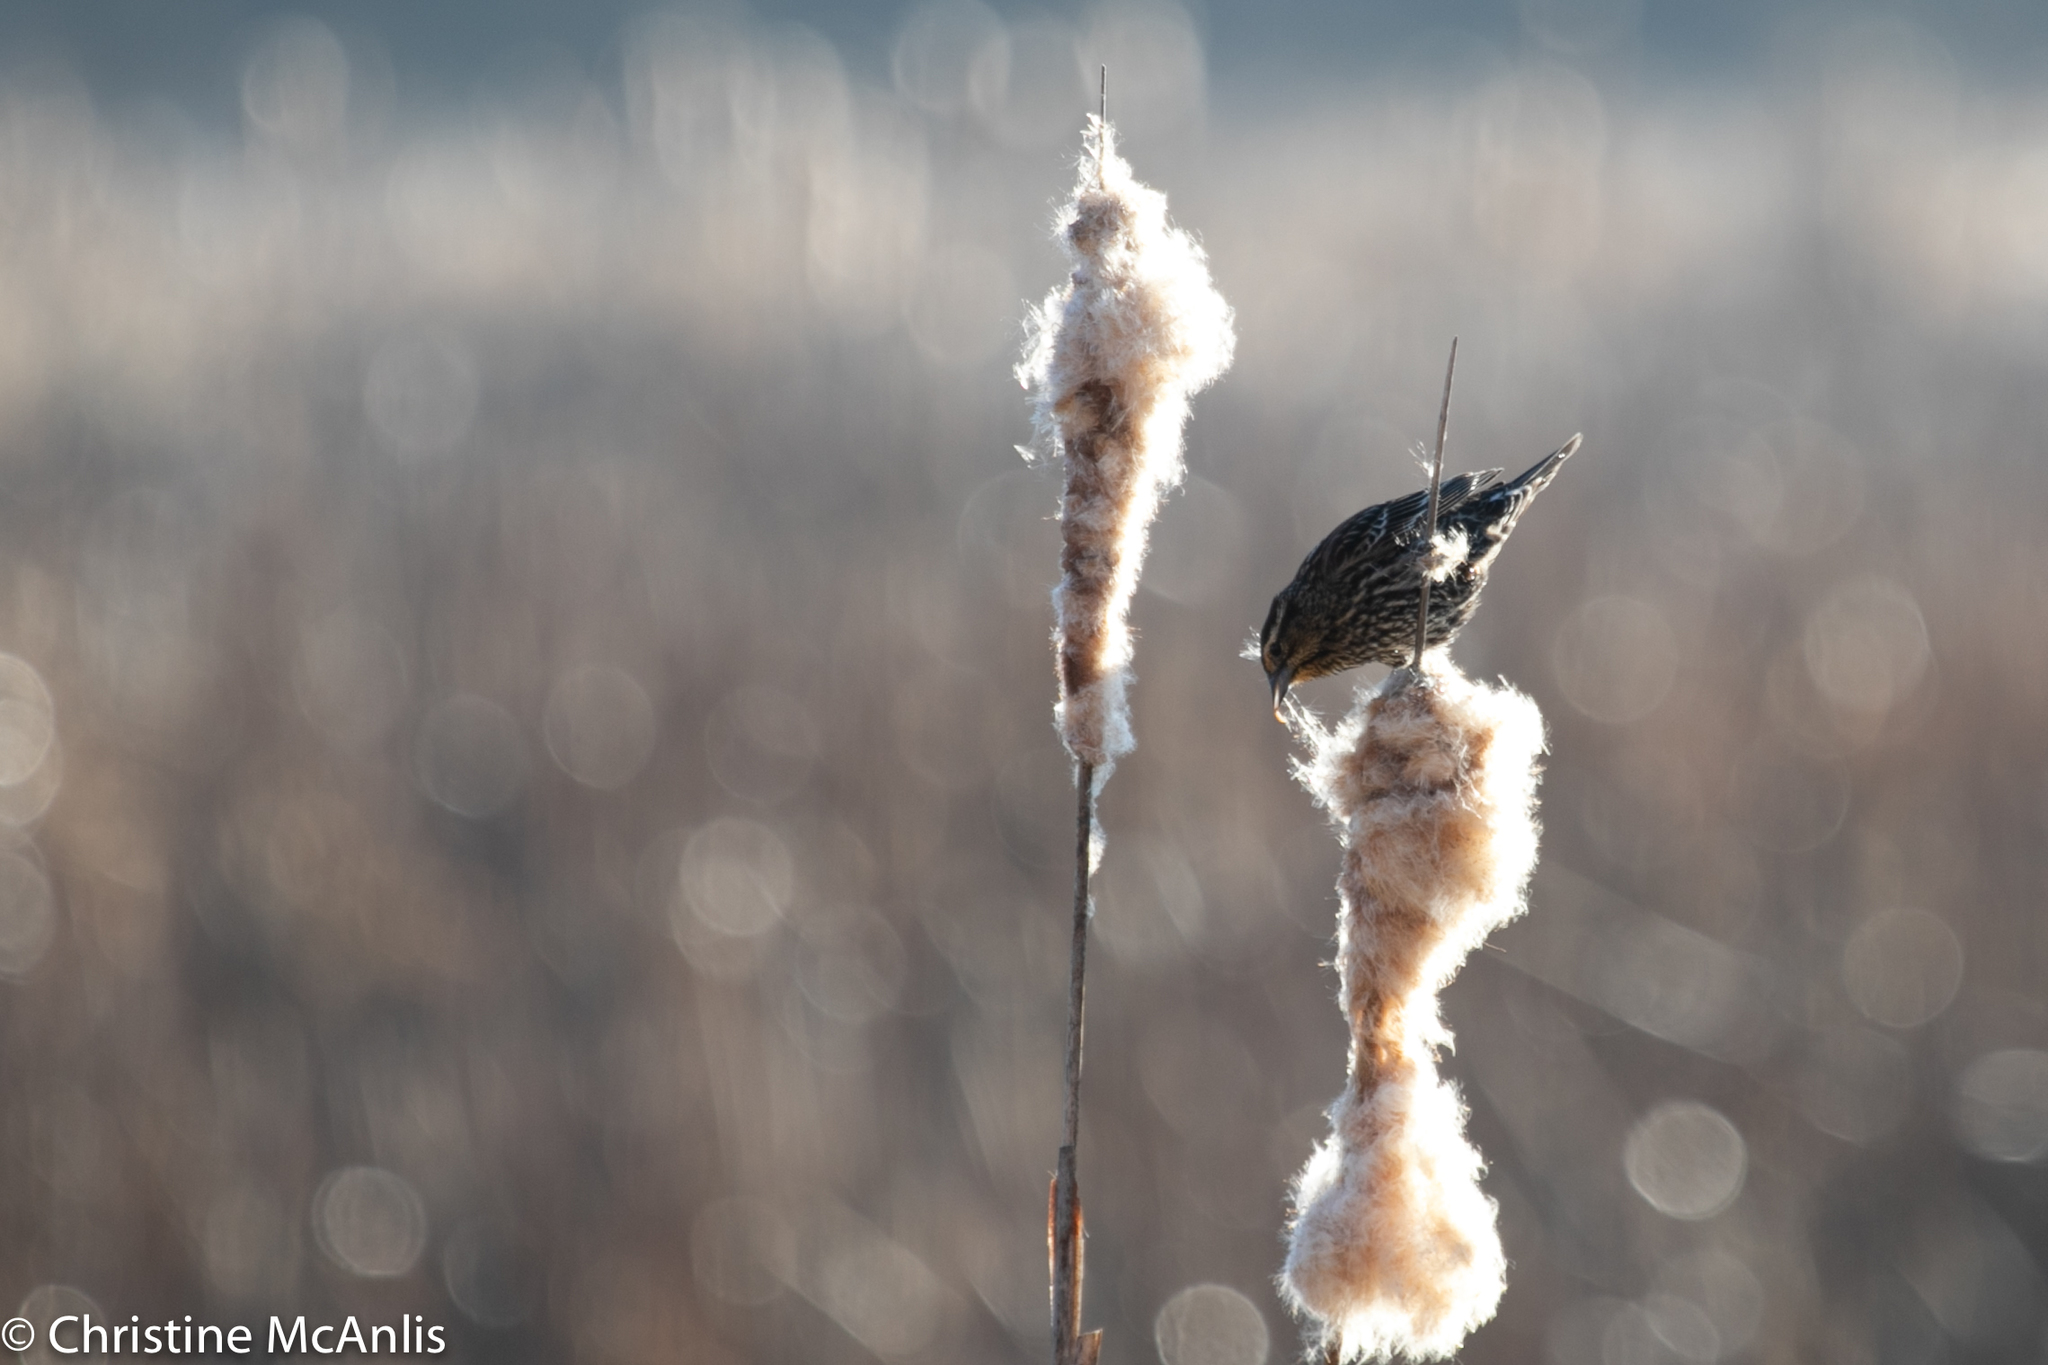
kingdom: Animalia
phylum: Chordata
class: Aves
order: Passeriformes
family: Icteridae
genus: Agelaius
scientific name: Agelaius phoeniceus
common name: Red-winged blackbird
